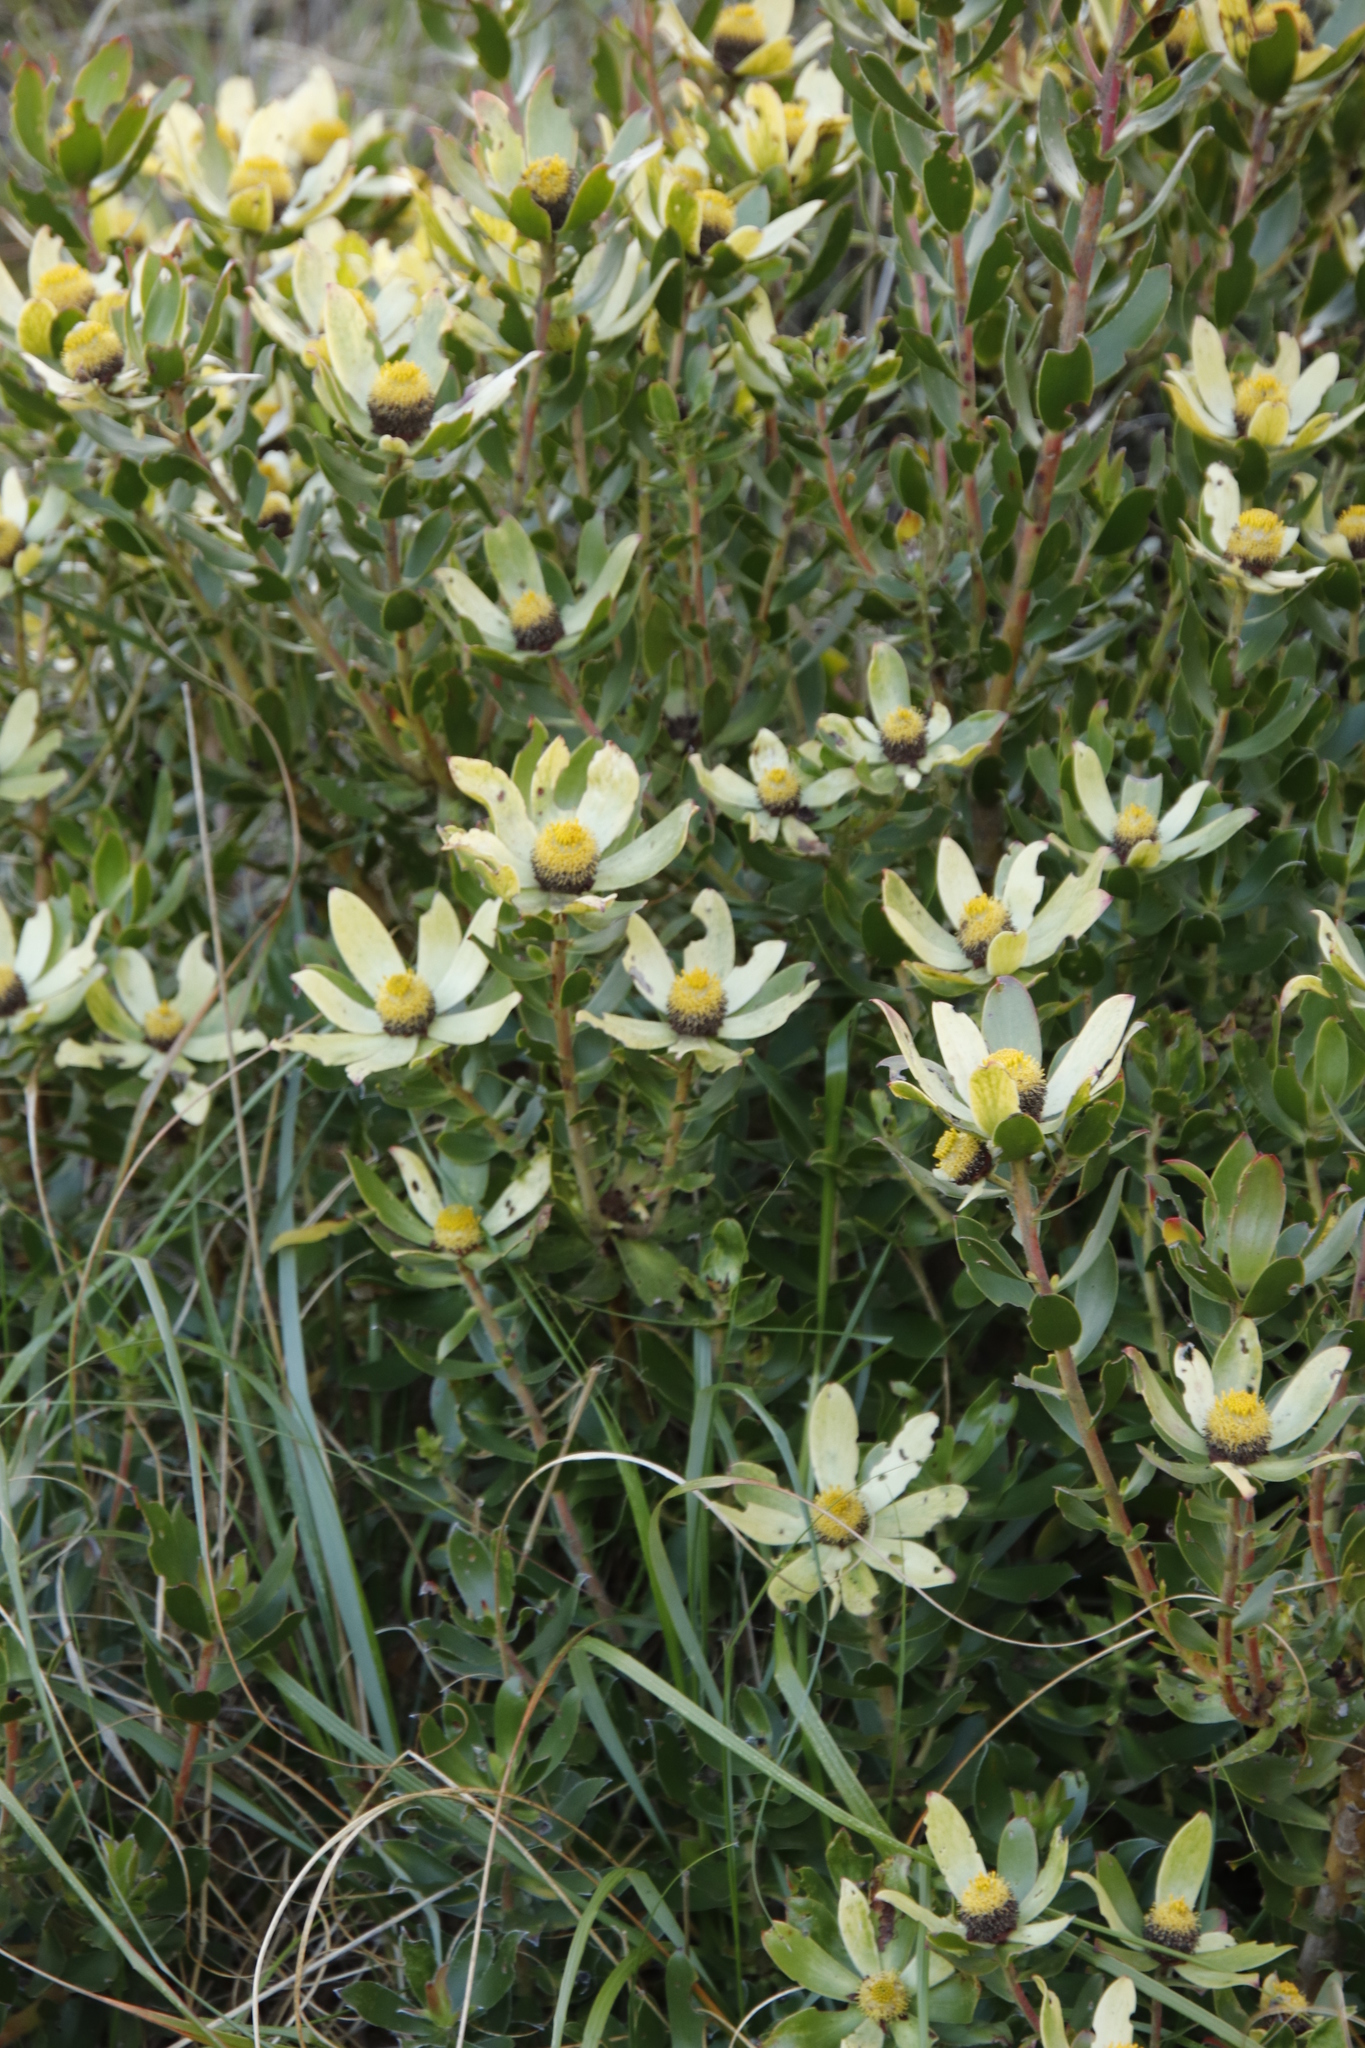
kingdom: Plantae
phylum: Tracheophyta
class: Magnoliopsida
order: Proteales
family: Proteaceae
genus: Leucadendron
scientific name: Leucadendron strobilinum
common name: Mountain rose
